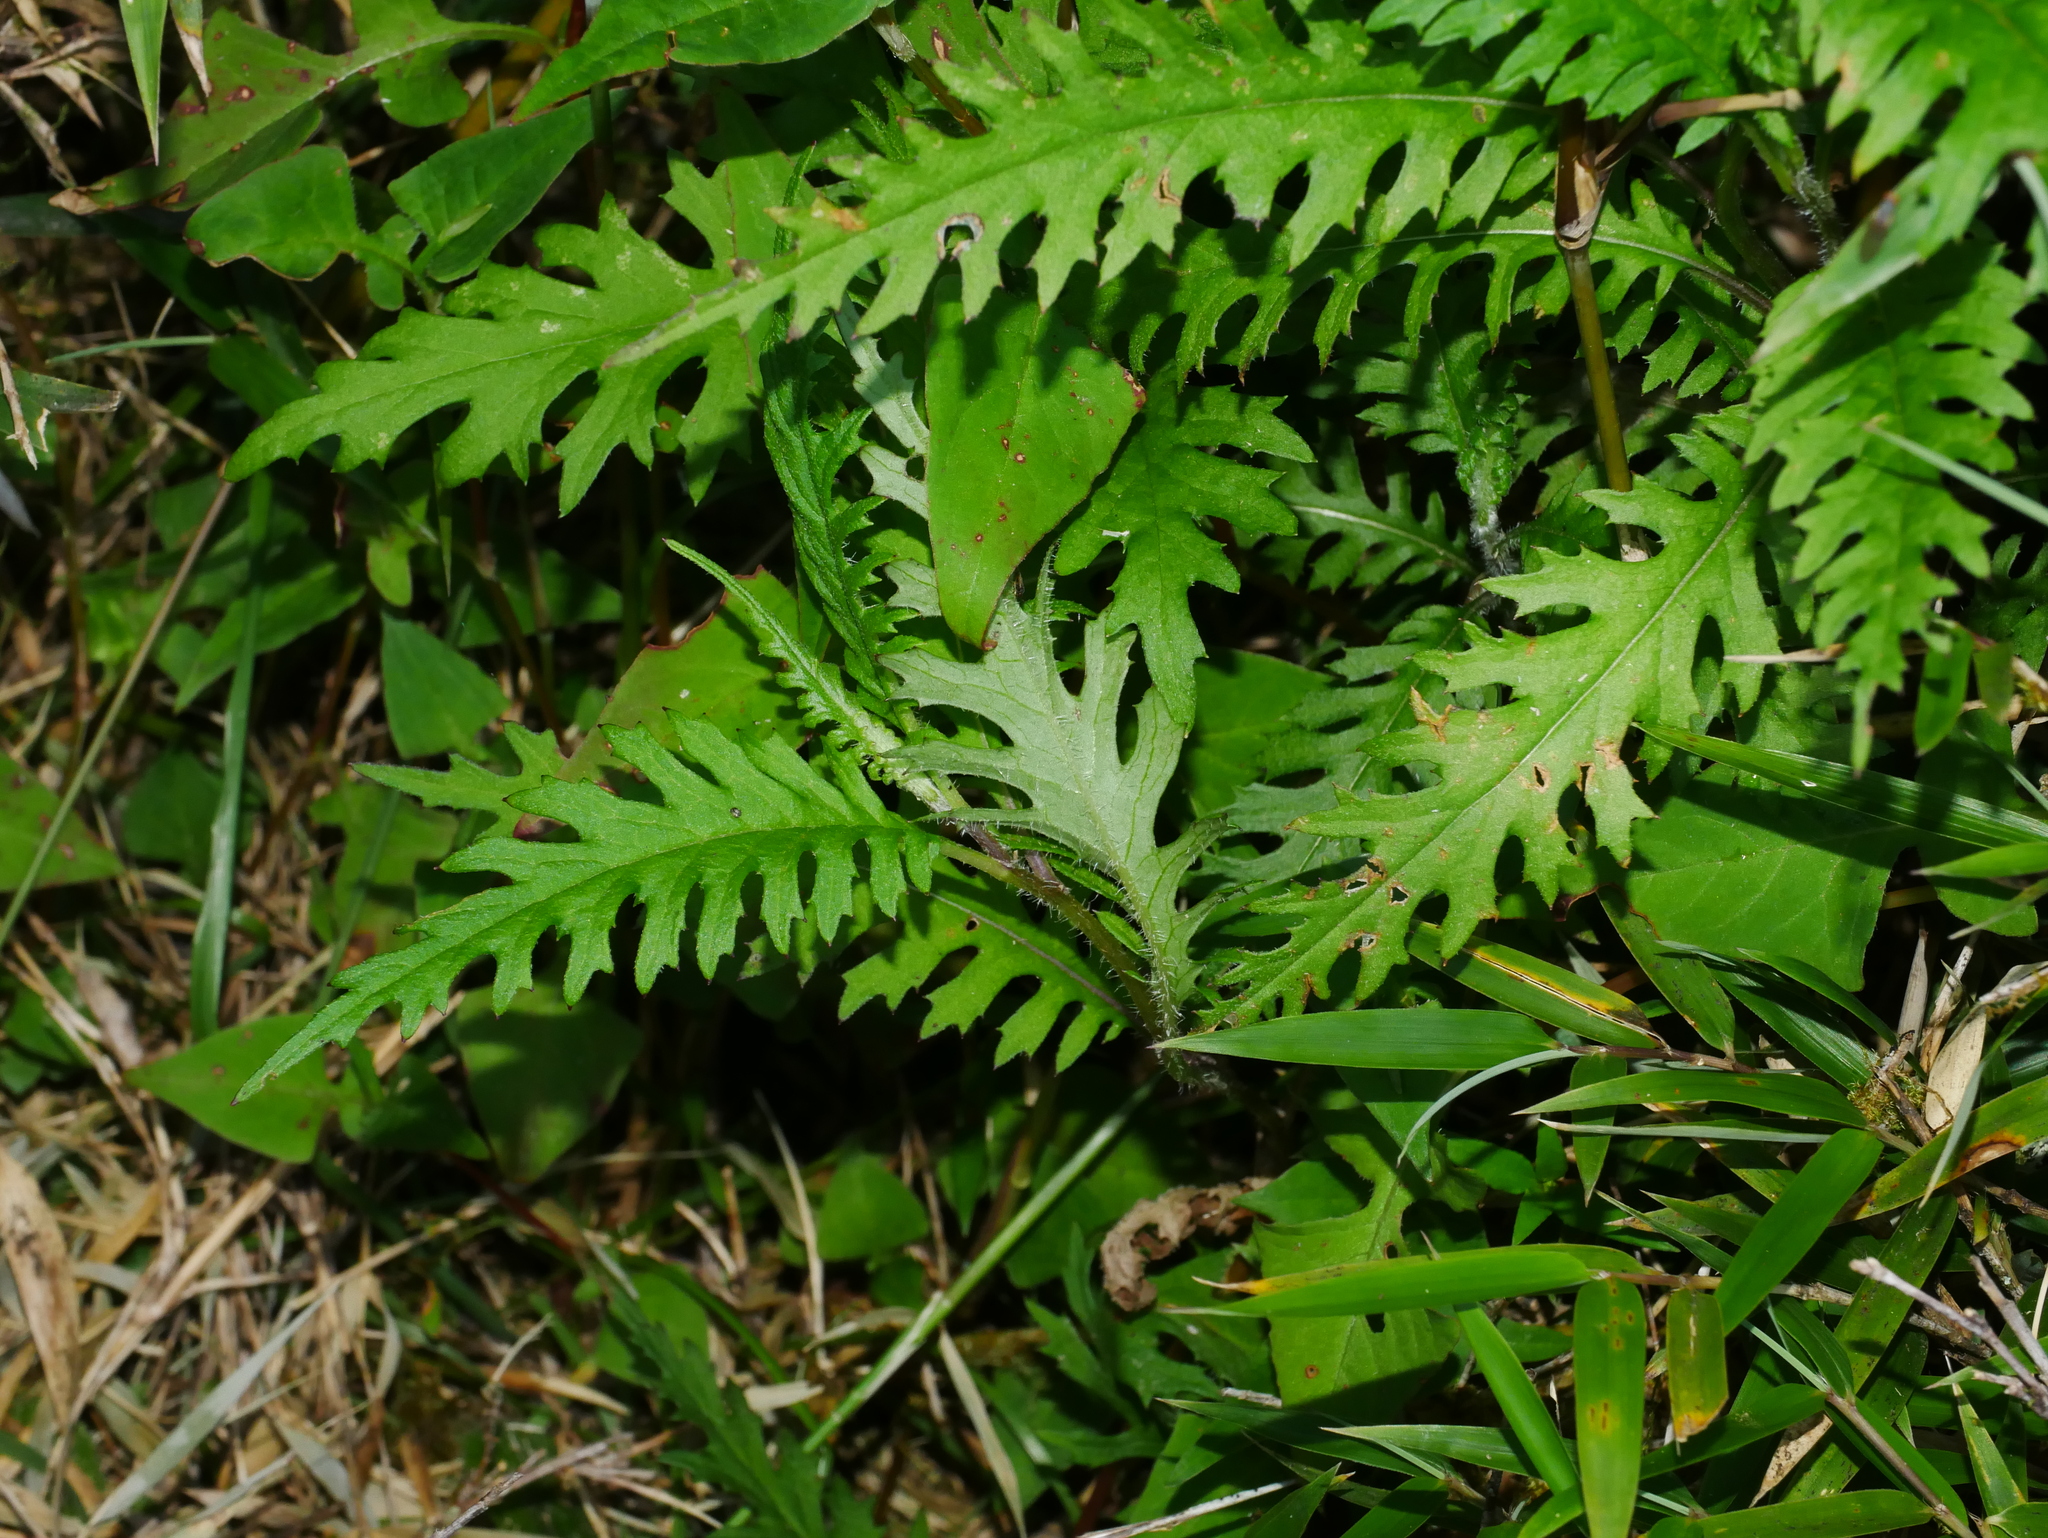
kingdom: Plantae
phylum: Tracheophyta
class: Magnoliopsida
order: Asterales
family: Asteraceae
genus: Jacobaea
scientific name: Jacobaea morrisonensis
